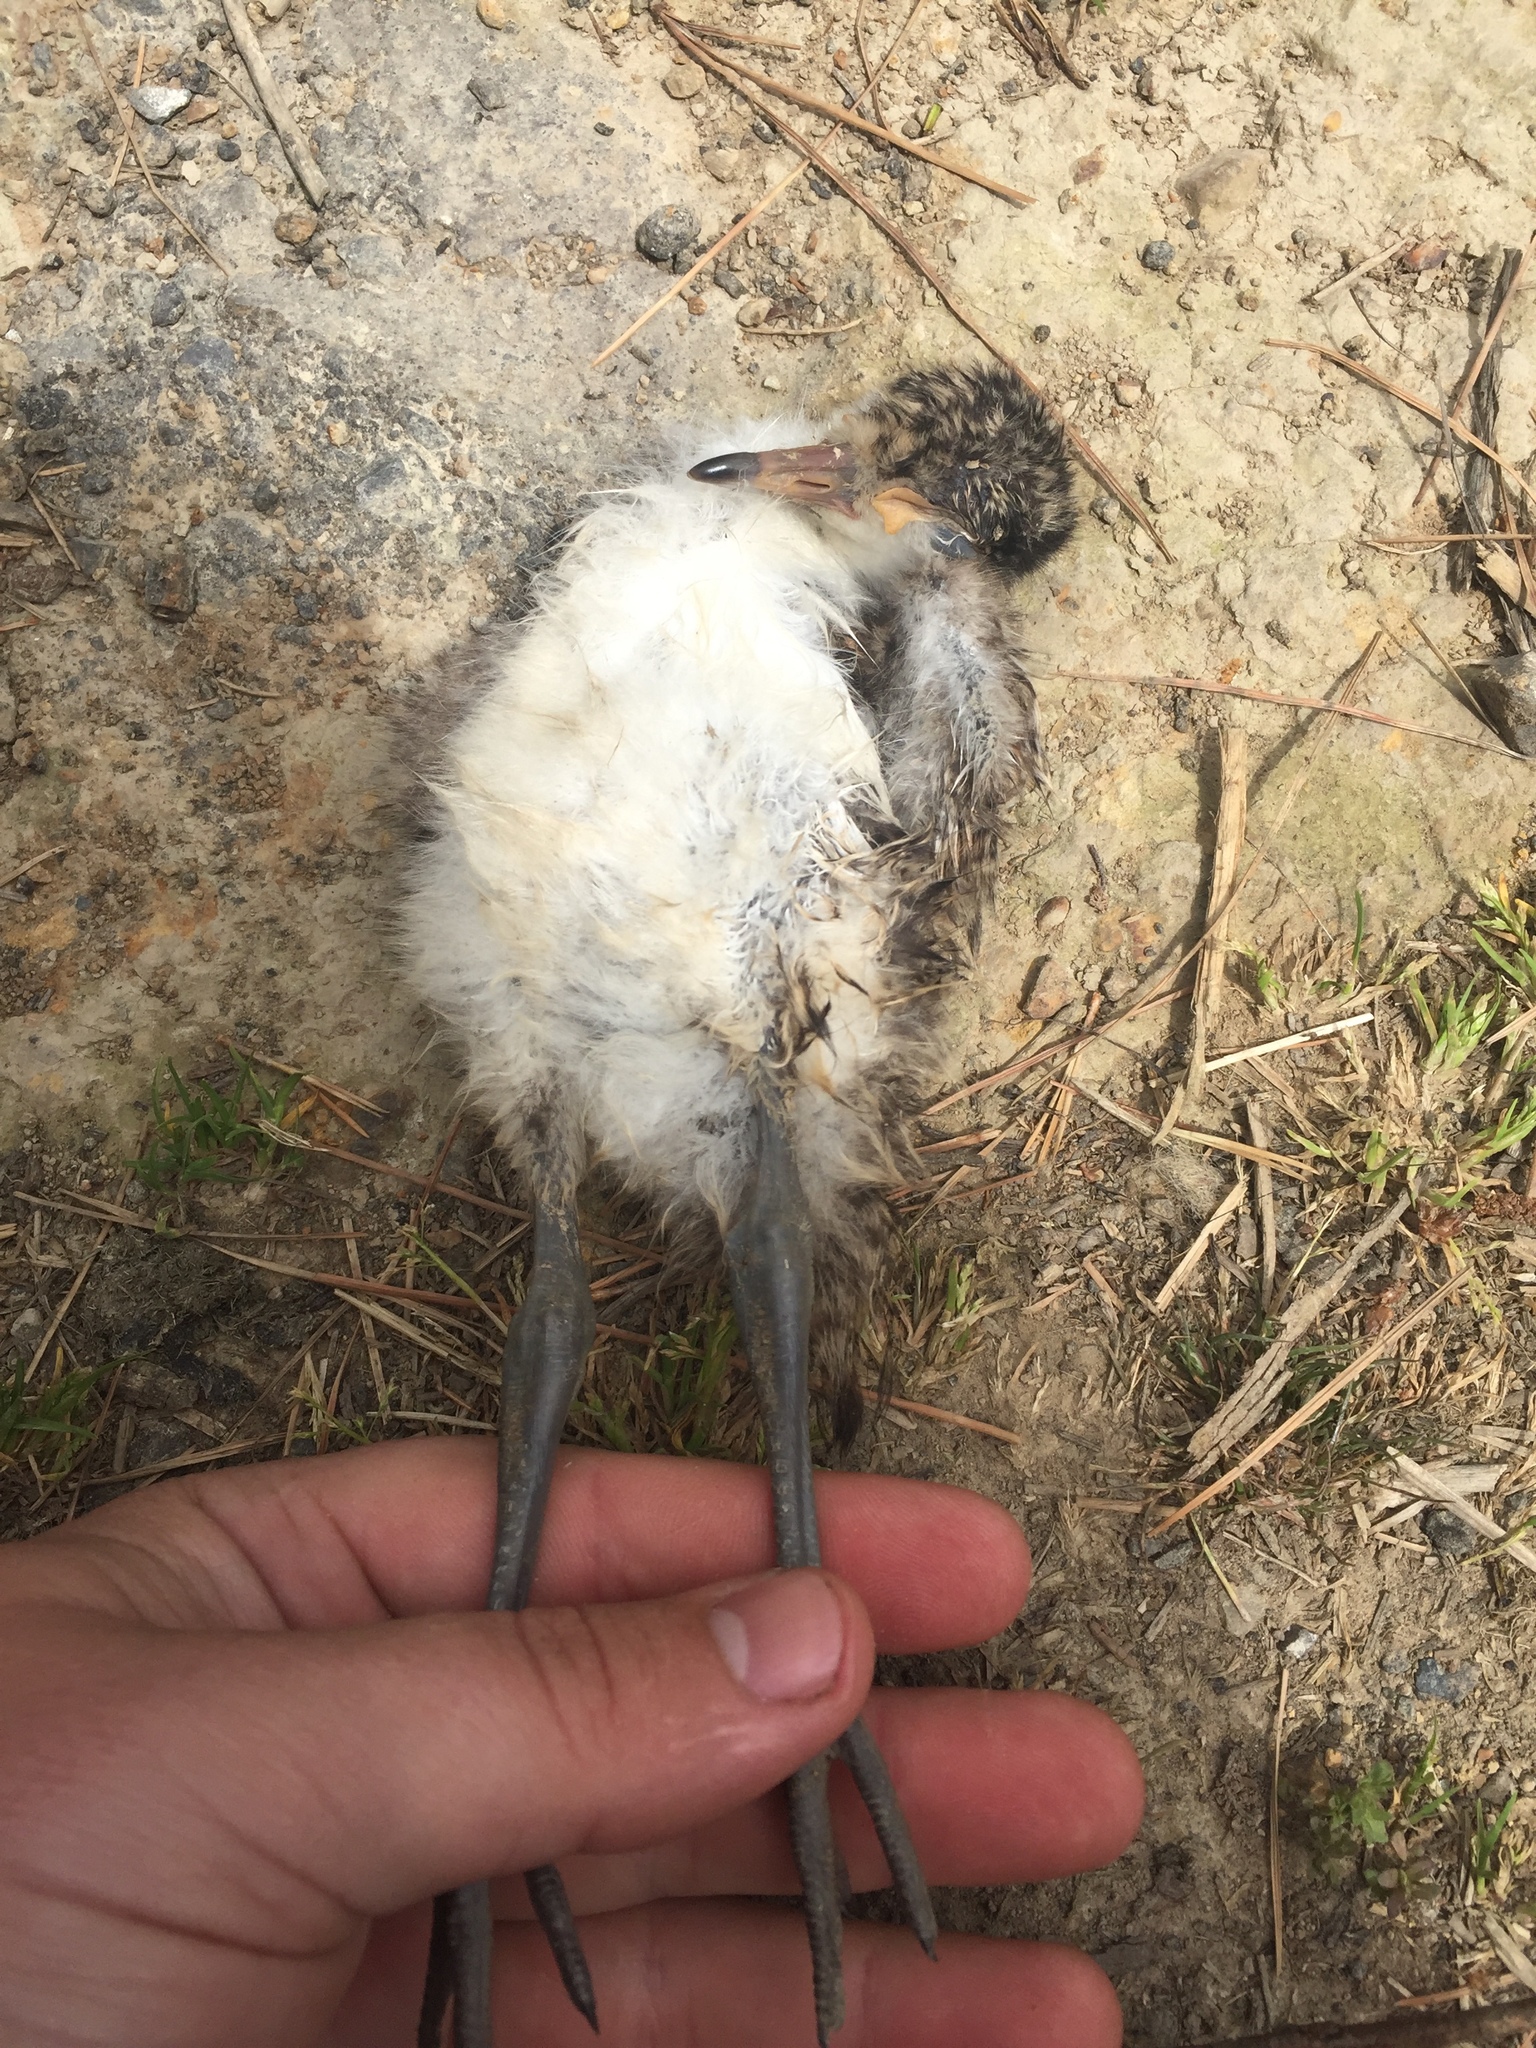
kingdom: Animalia
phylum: Chordata
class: Aves
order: Charadriiformes
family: Charadriidae
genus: Vanellus
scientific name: Vanellus miles
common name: Masked lapwing
